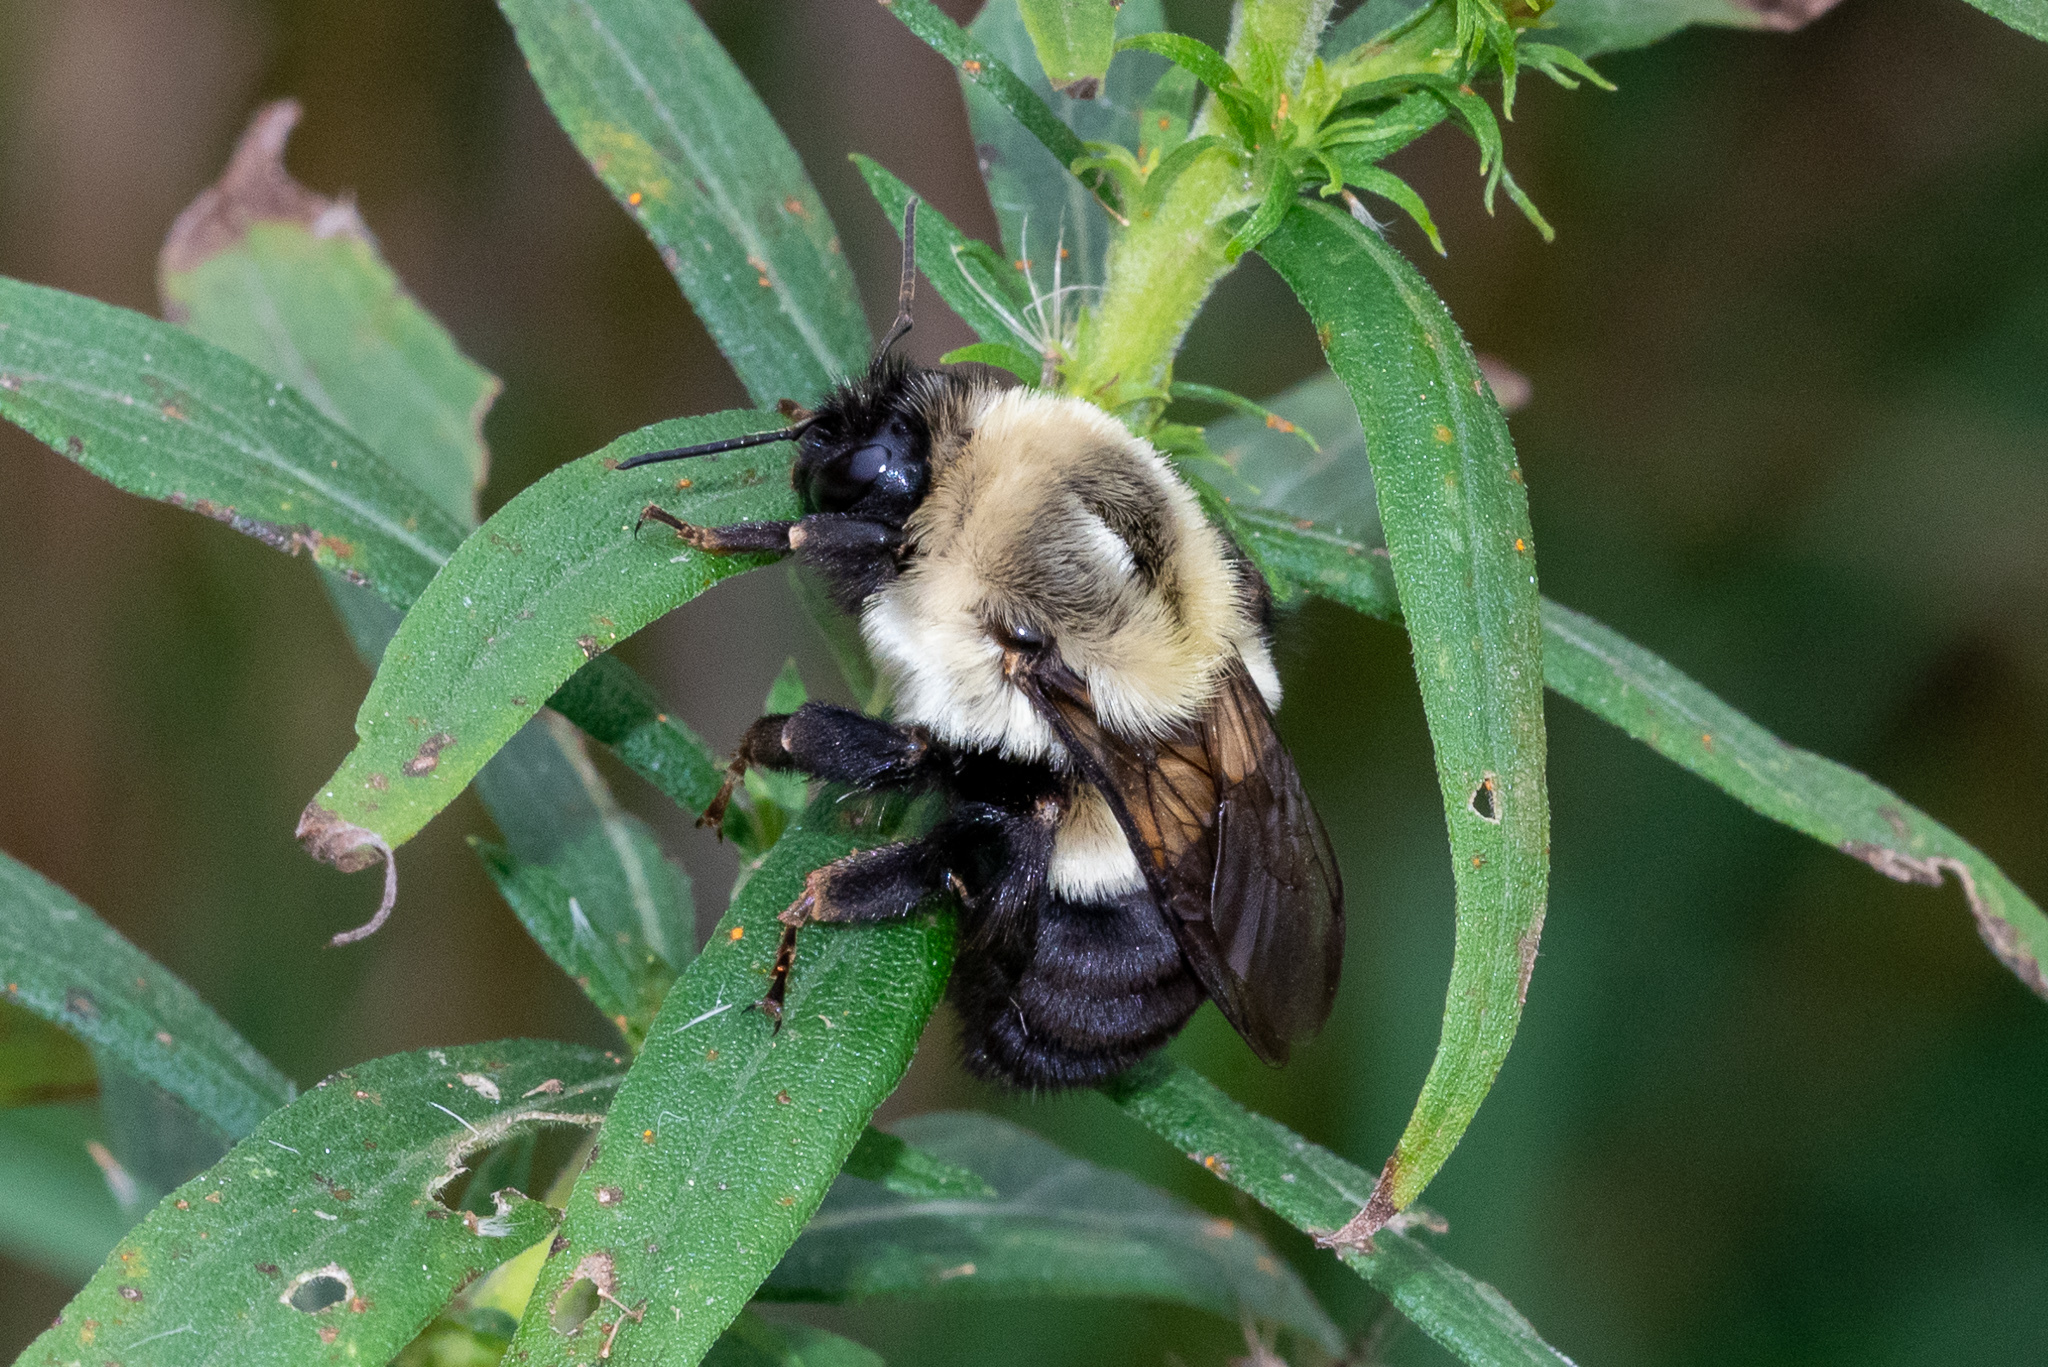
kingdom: Animalia
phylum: Arthropoda
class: Insecta
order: Hymenoptera
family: Apidae
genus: Bombus
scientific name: Bombus impatiens
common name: Common eastern bumble bee
